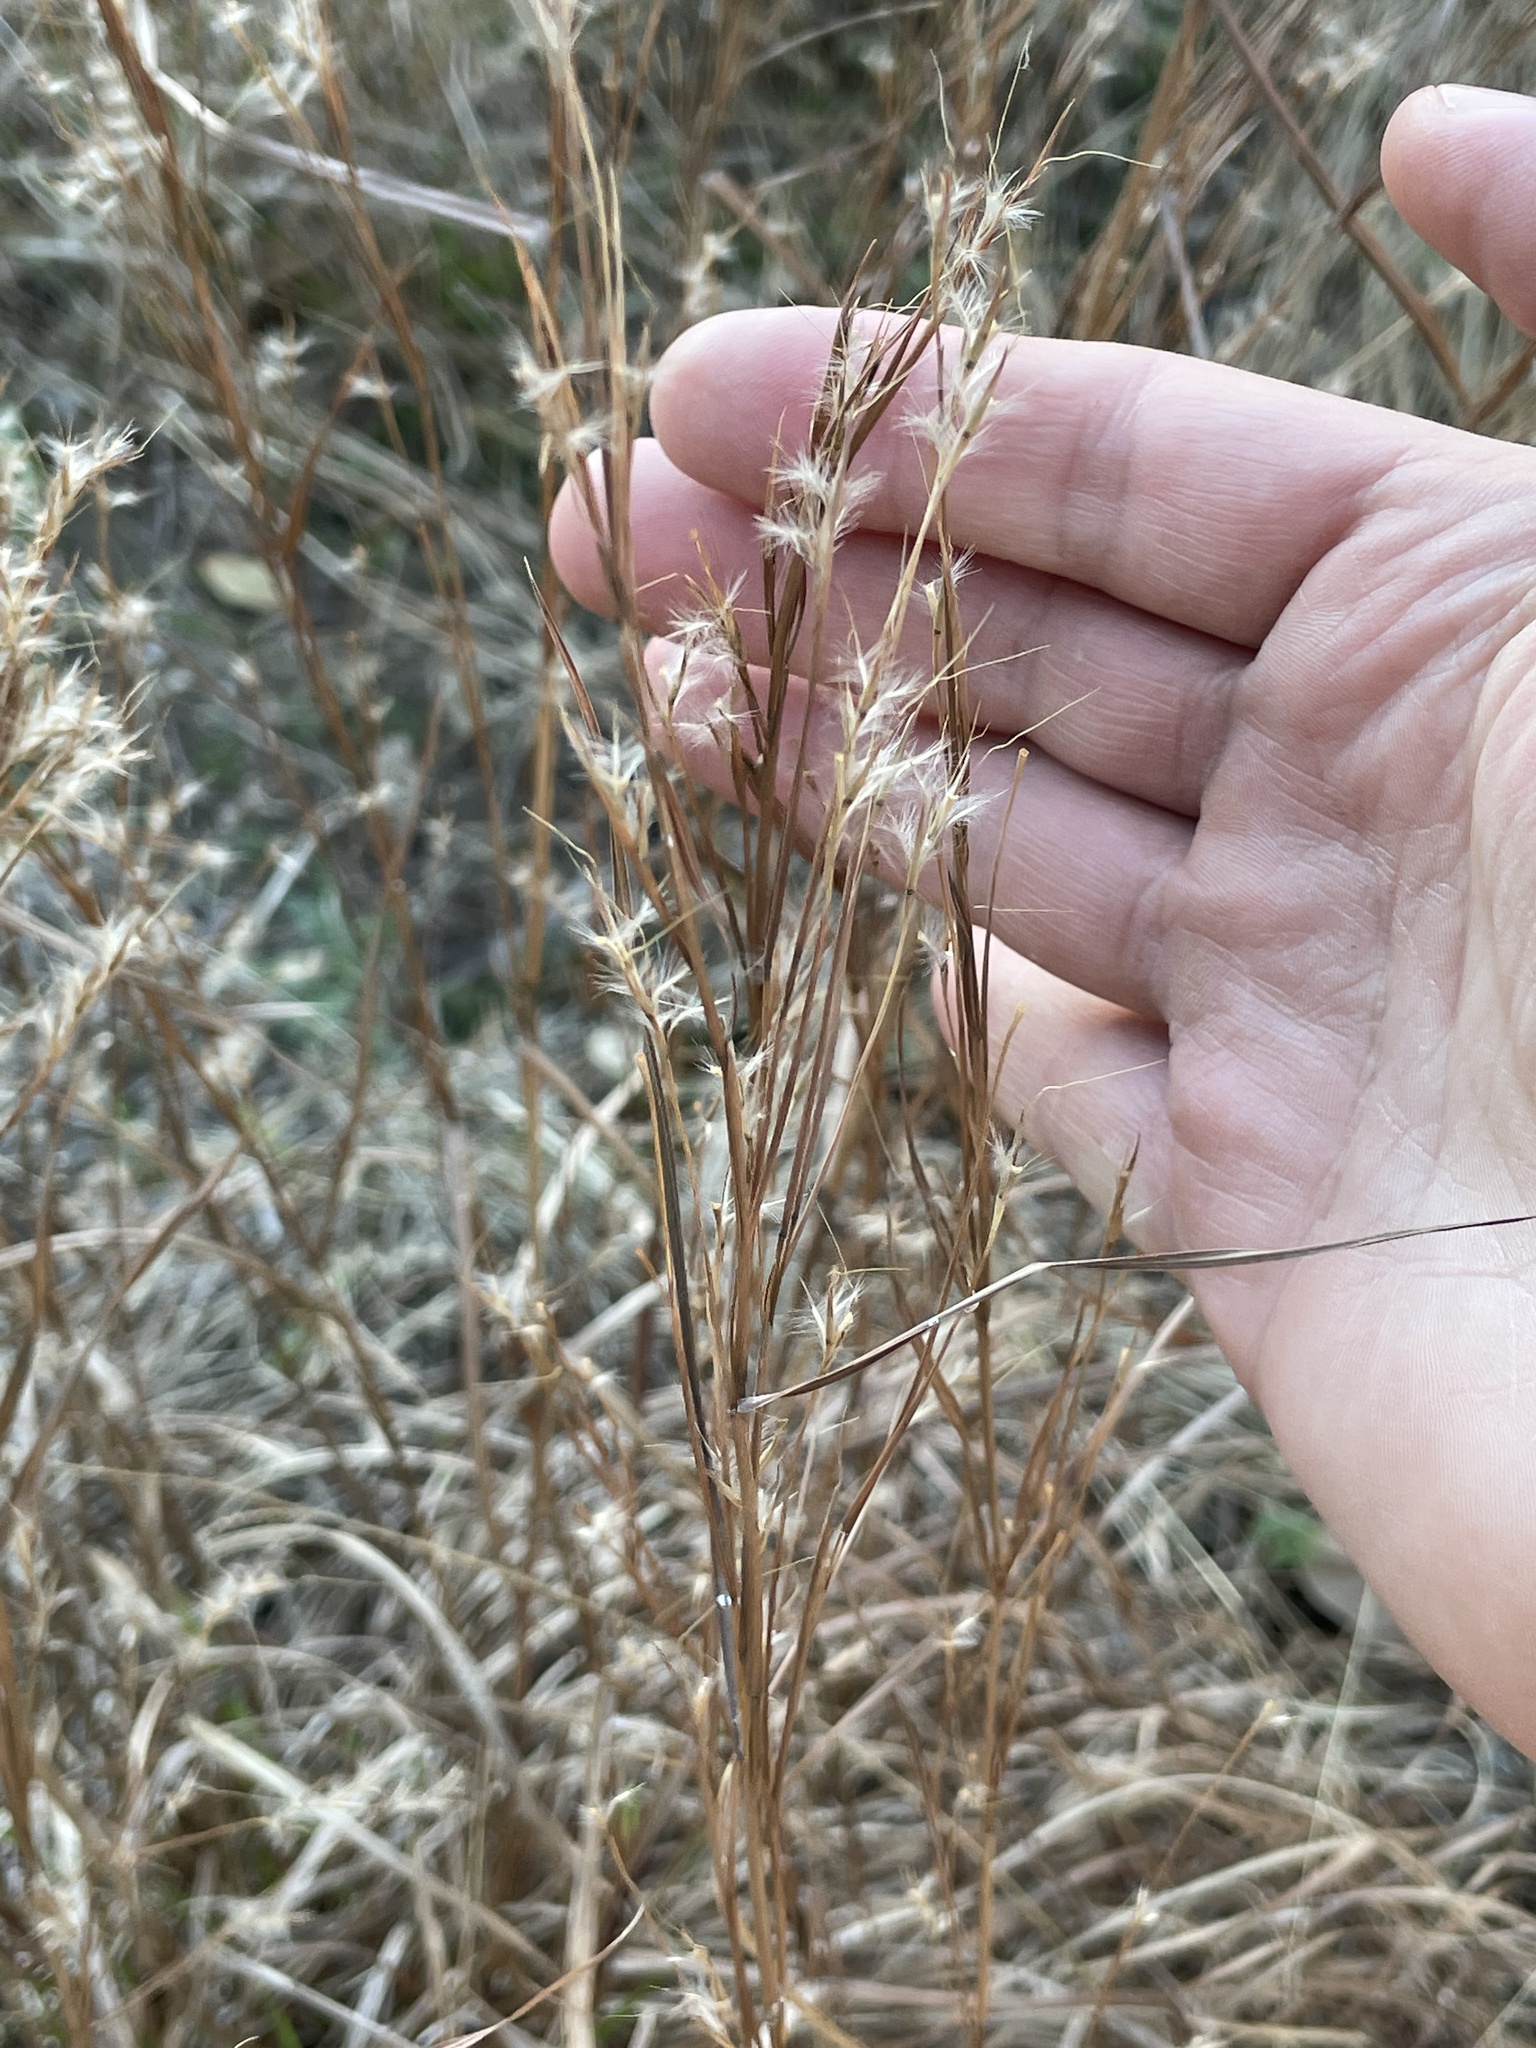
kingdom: Plantae
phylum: Tracheophyta
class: Liliopsida
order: Poales
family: Poaceae
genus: Schizachyrium
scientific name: Schizachyrium scoparium
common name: Little bluestem
